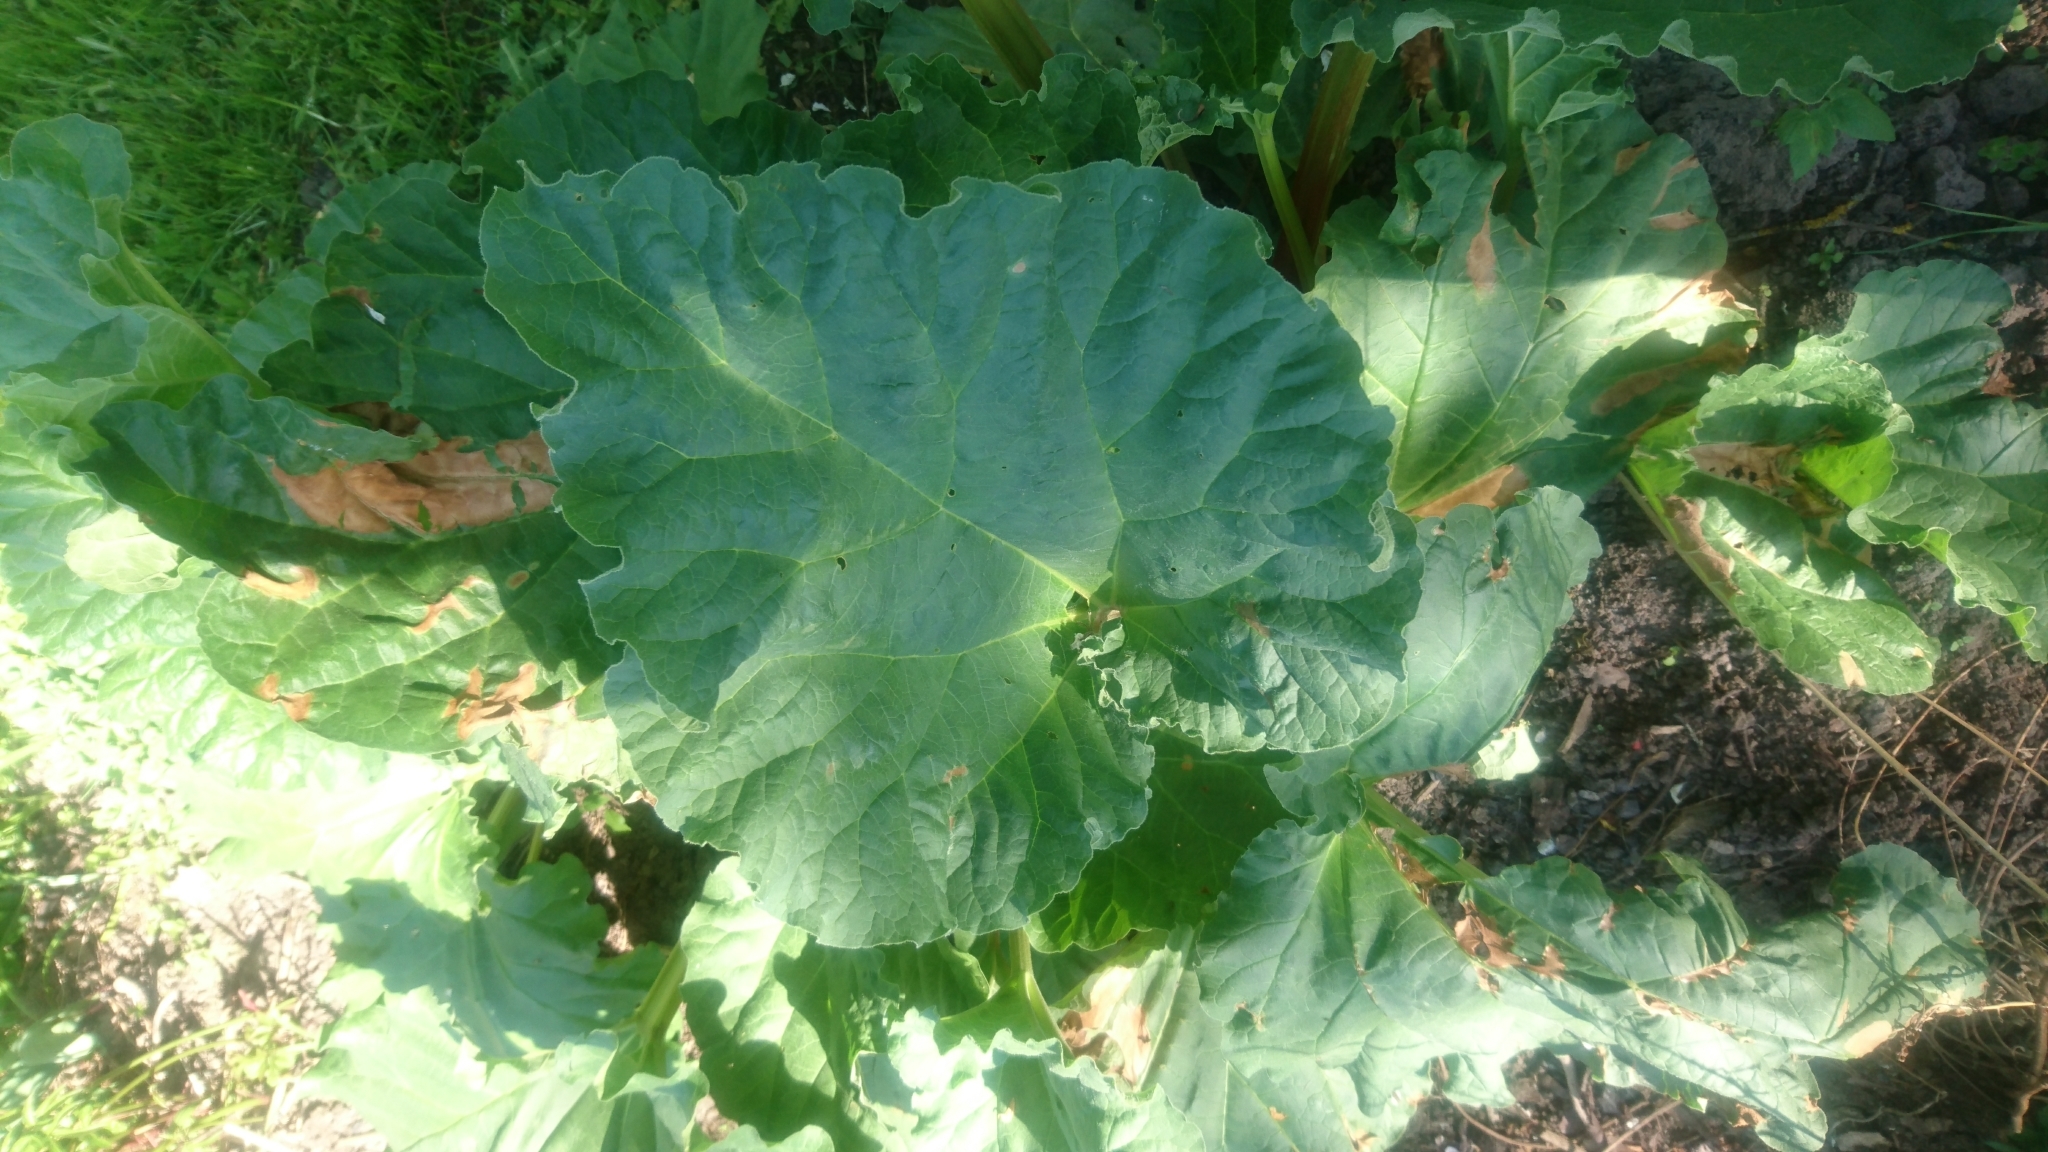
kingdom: Plantae
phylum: Tracheophyta
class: Magnoliopsida
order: Caryophyllales
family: Polygonaceae
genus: Rheum
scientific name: Rheum rhabarbarum
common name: Garden rhubarb
